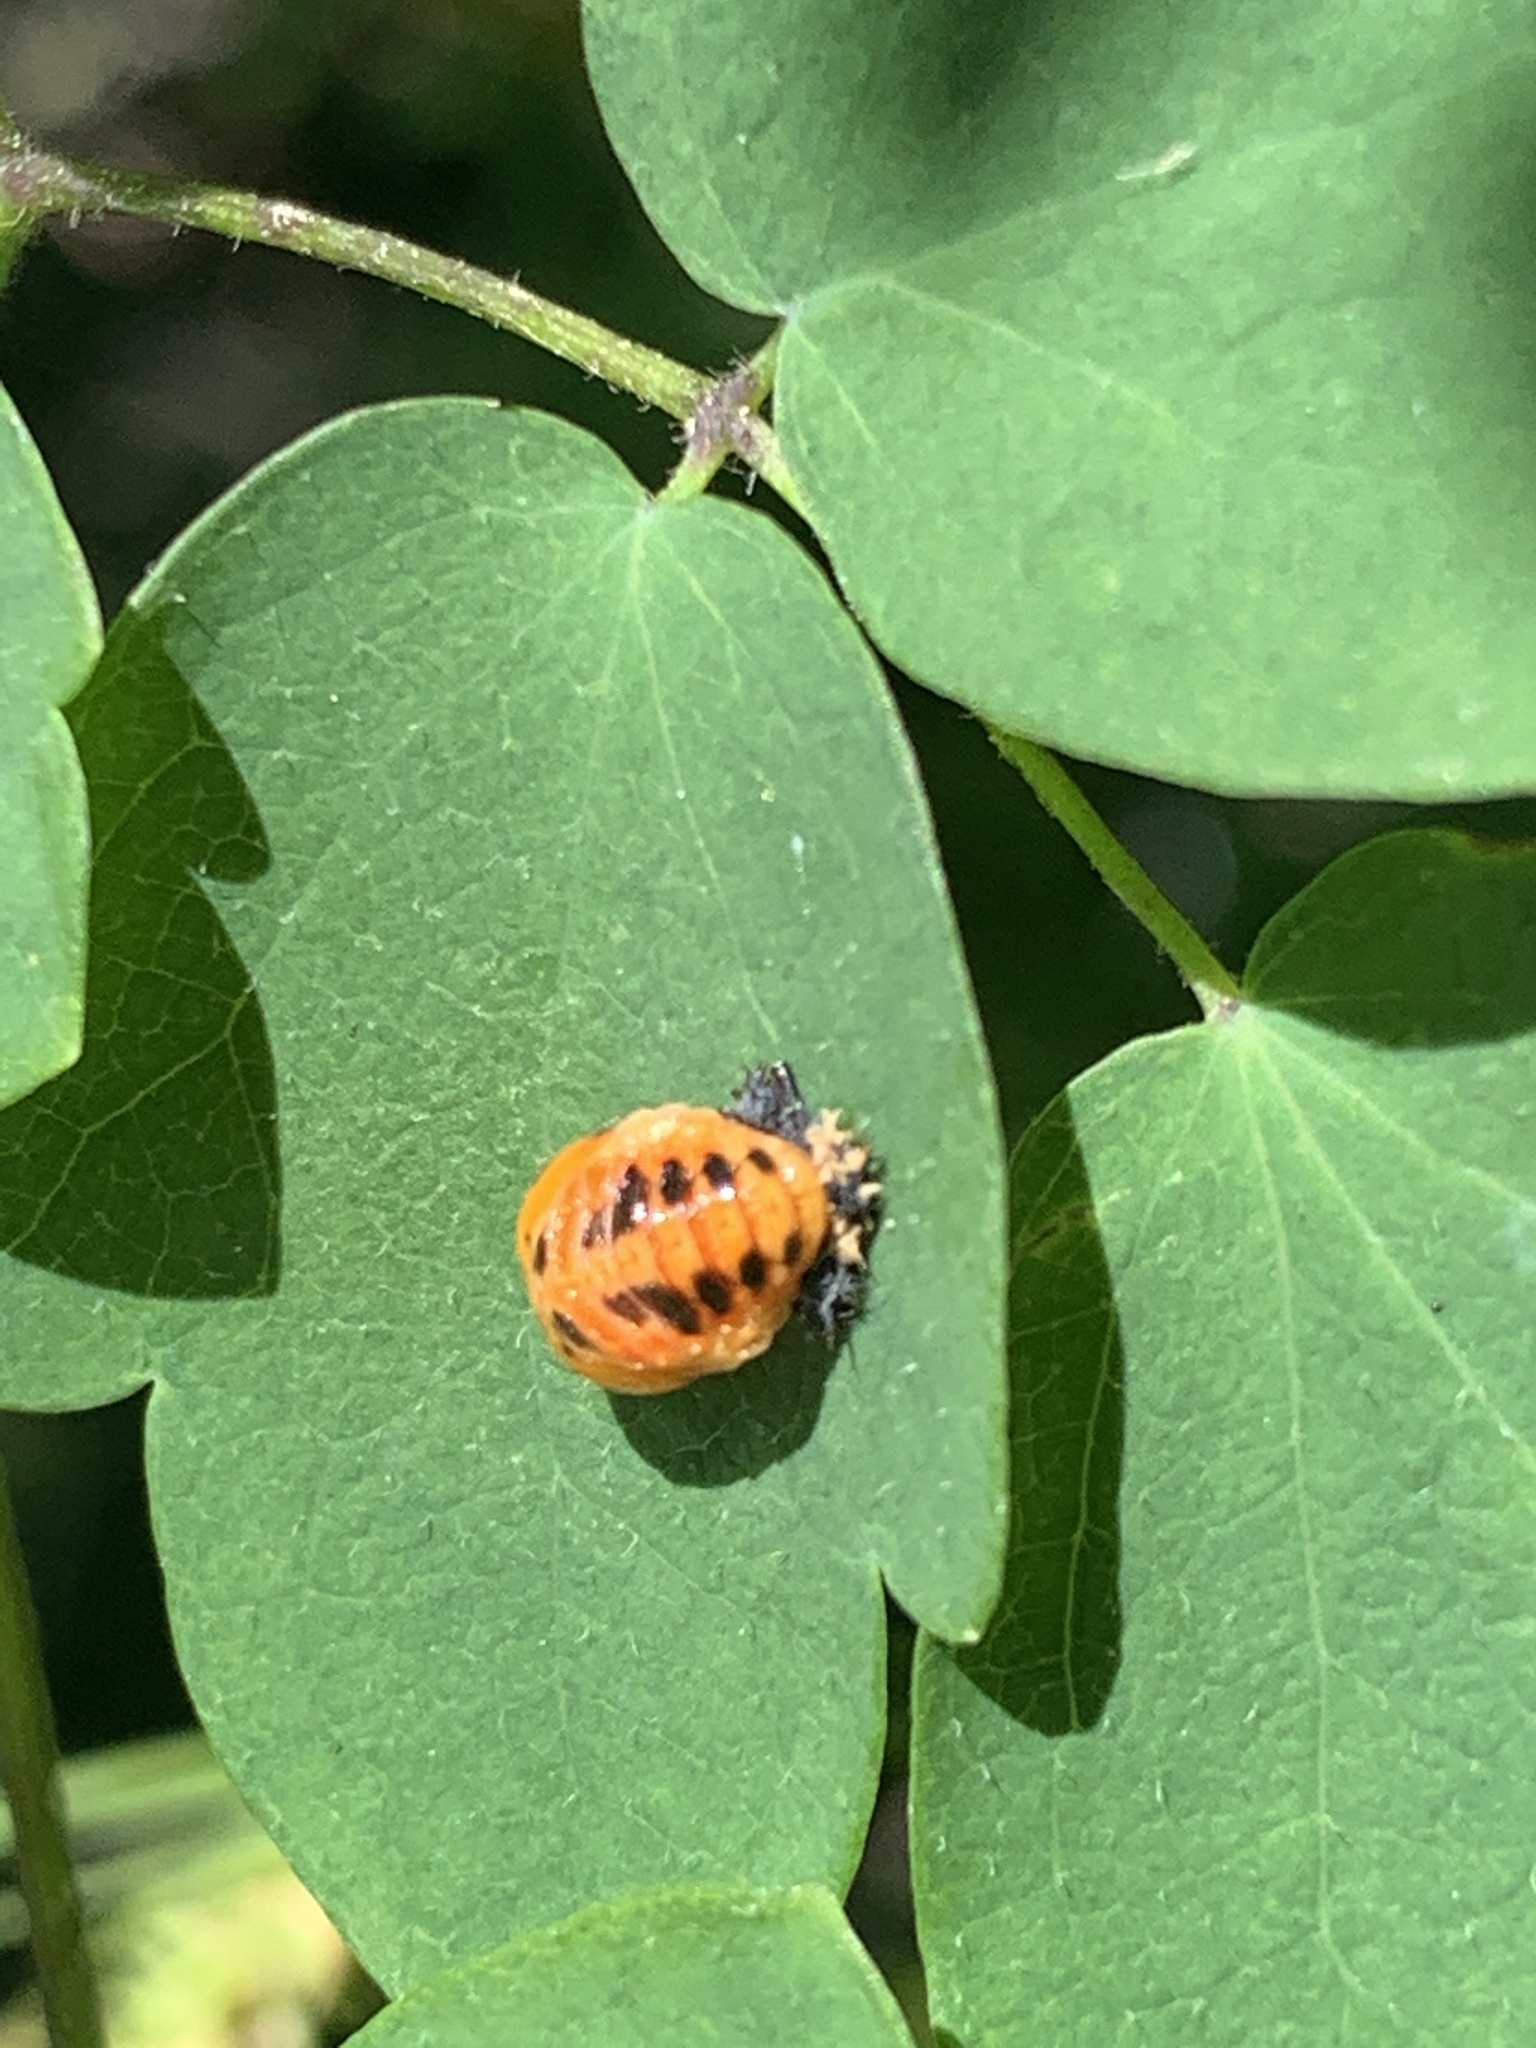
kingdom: Animalia
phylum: Arthropoda
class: Insecta
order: Coleoptera
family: Coccinellidae
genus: Harmonia
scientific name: Harmonia axyridis
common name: Harlequin ladybird
